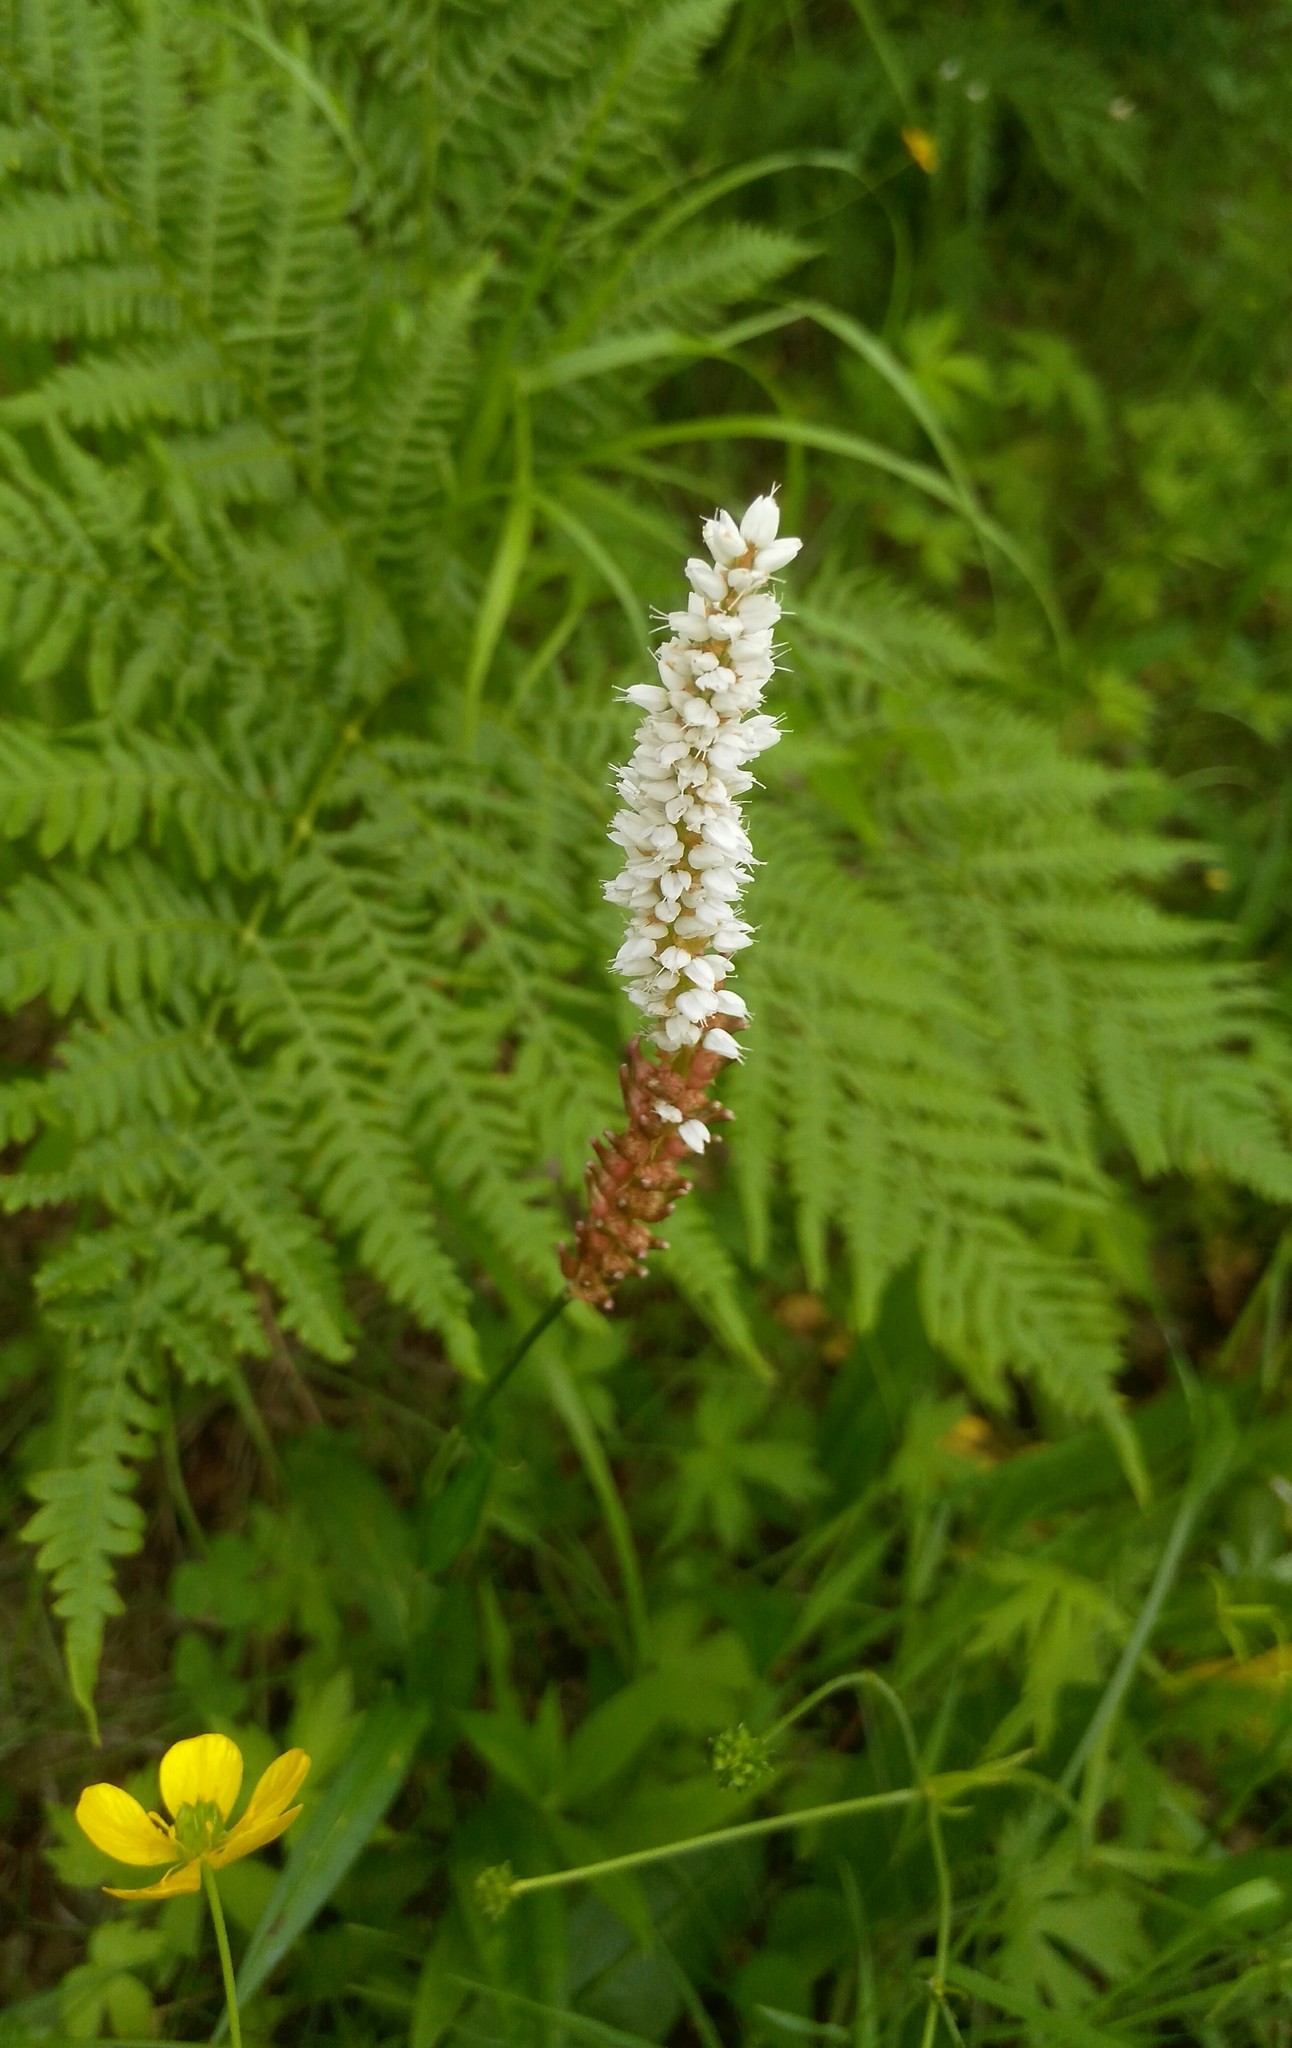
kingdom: Plantae
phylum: Tracheophyta
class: Magnoliopsida
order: Caryophyllales
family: Polygonaceae
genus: Bistorta
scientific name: Bistorta vivipara
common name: Alpine bistort
